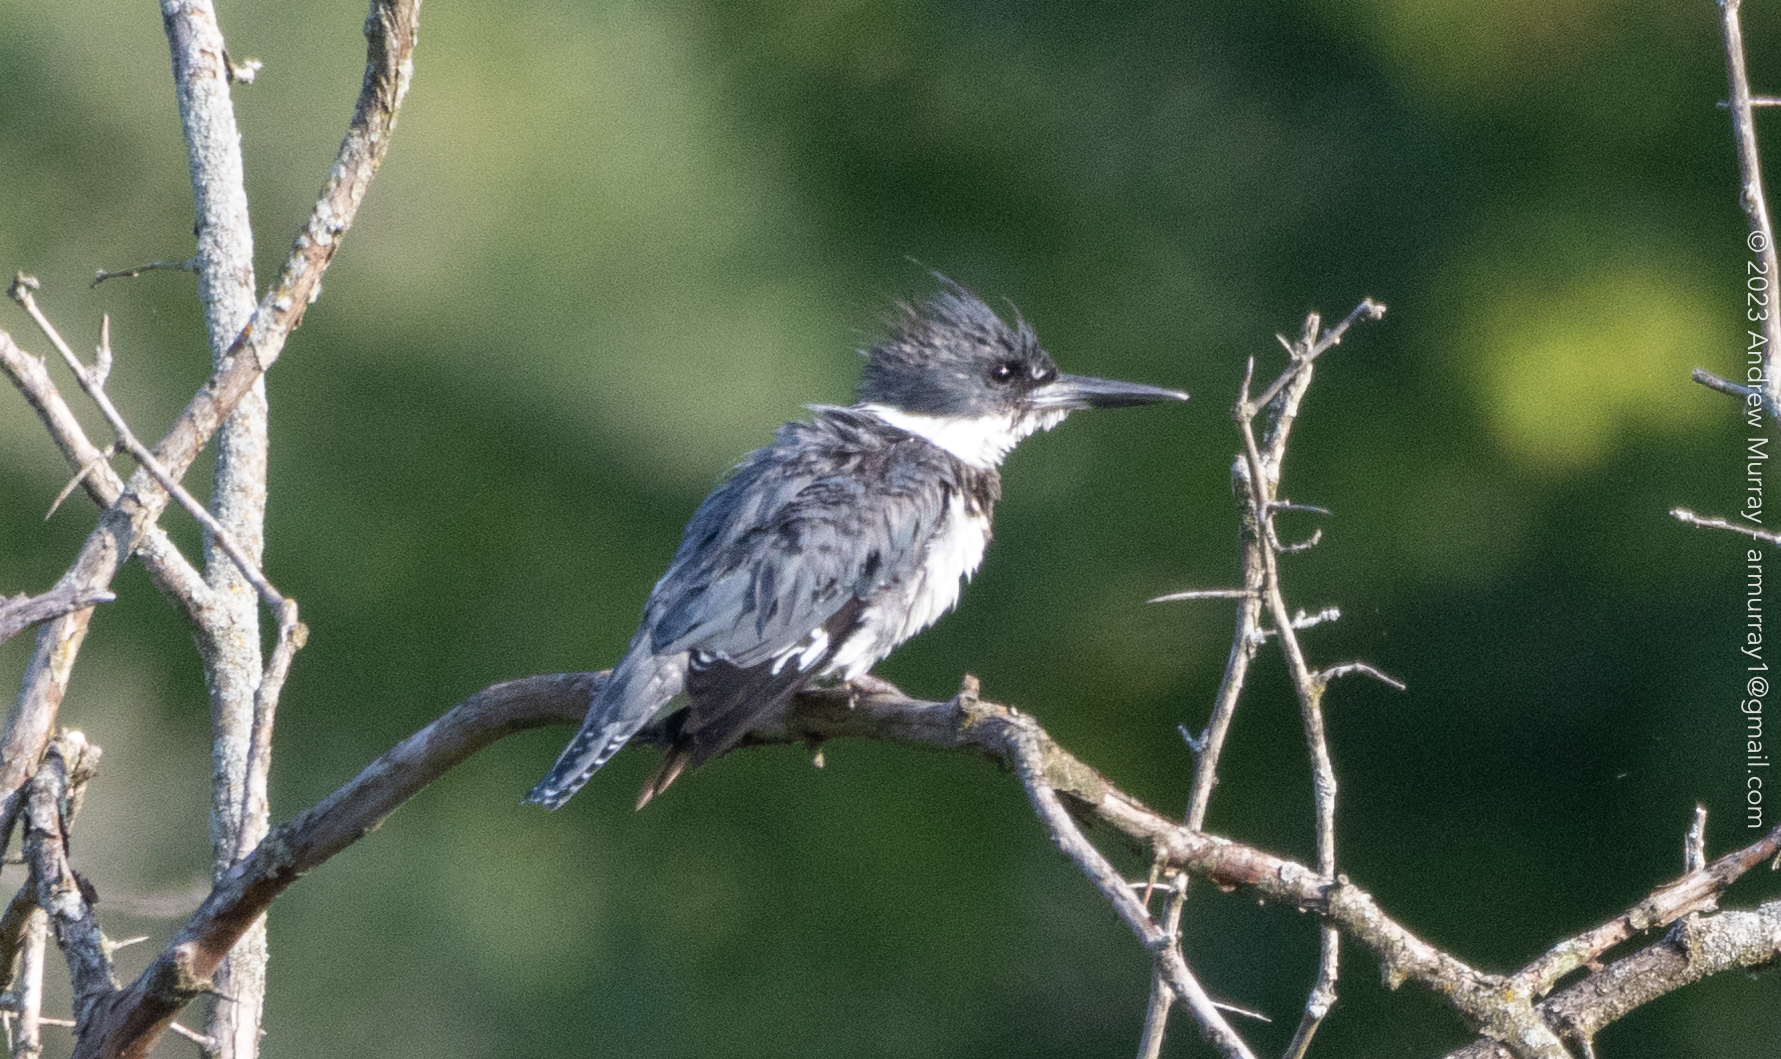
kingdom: Animalia
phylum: Chordata
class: Aves
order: Coraciiformes
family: Alcedinidae
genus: Megaceryle
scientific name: Megaceryle alcyon
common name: Belted kingfisher
